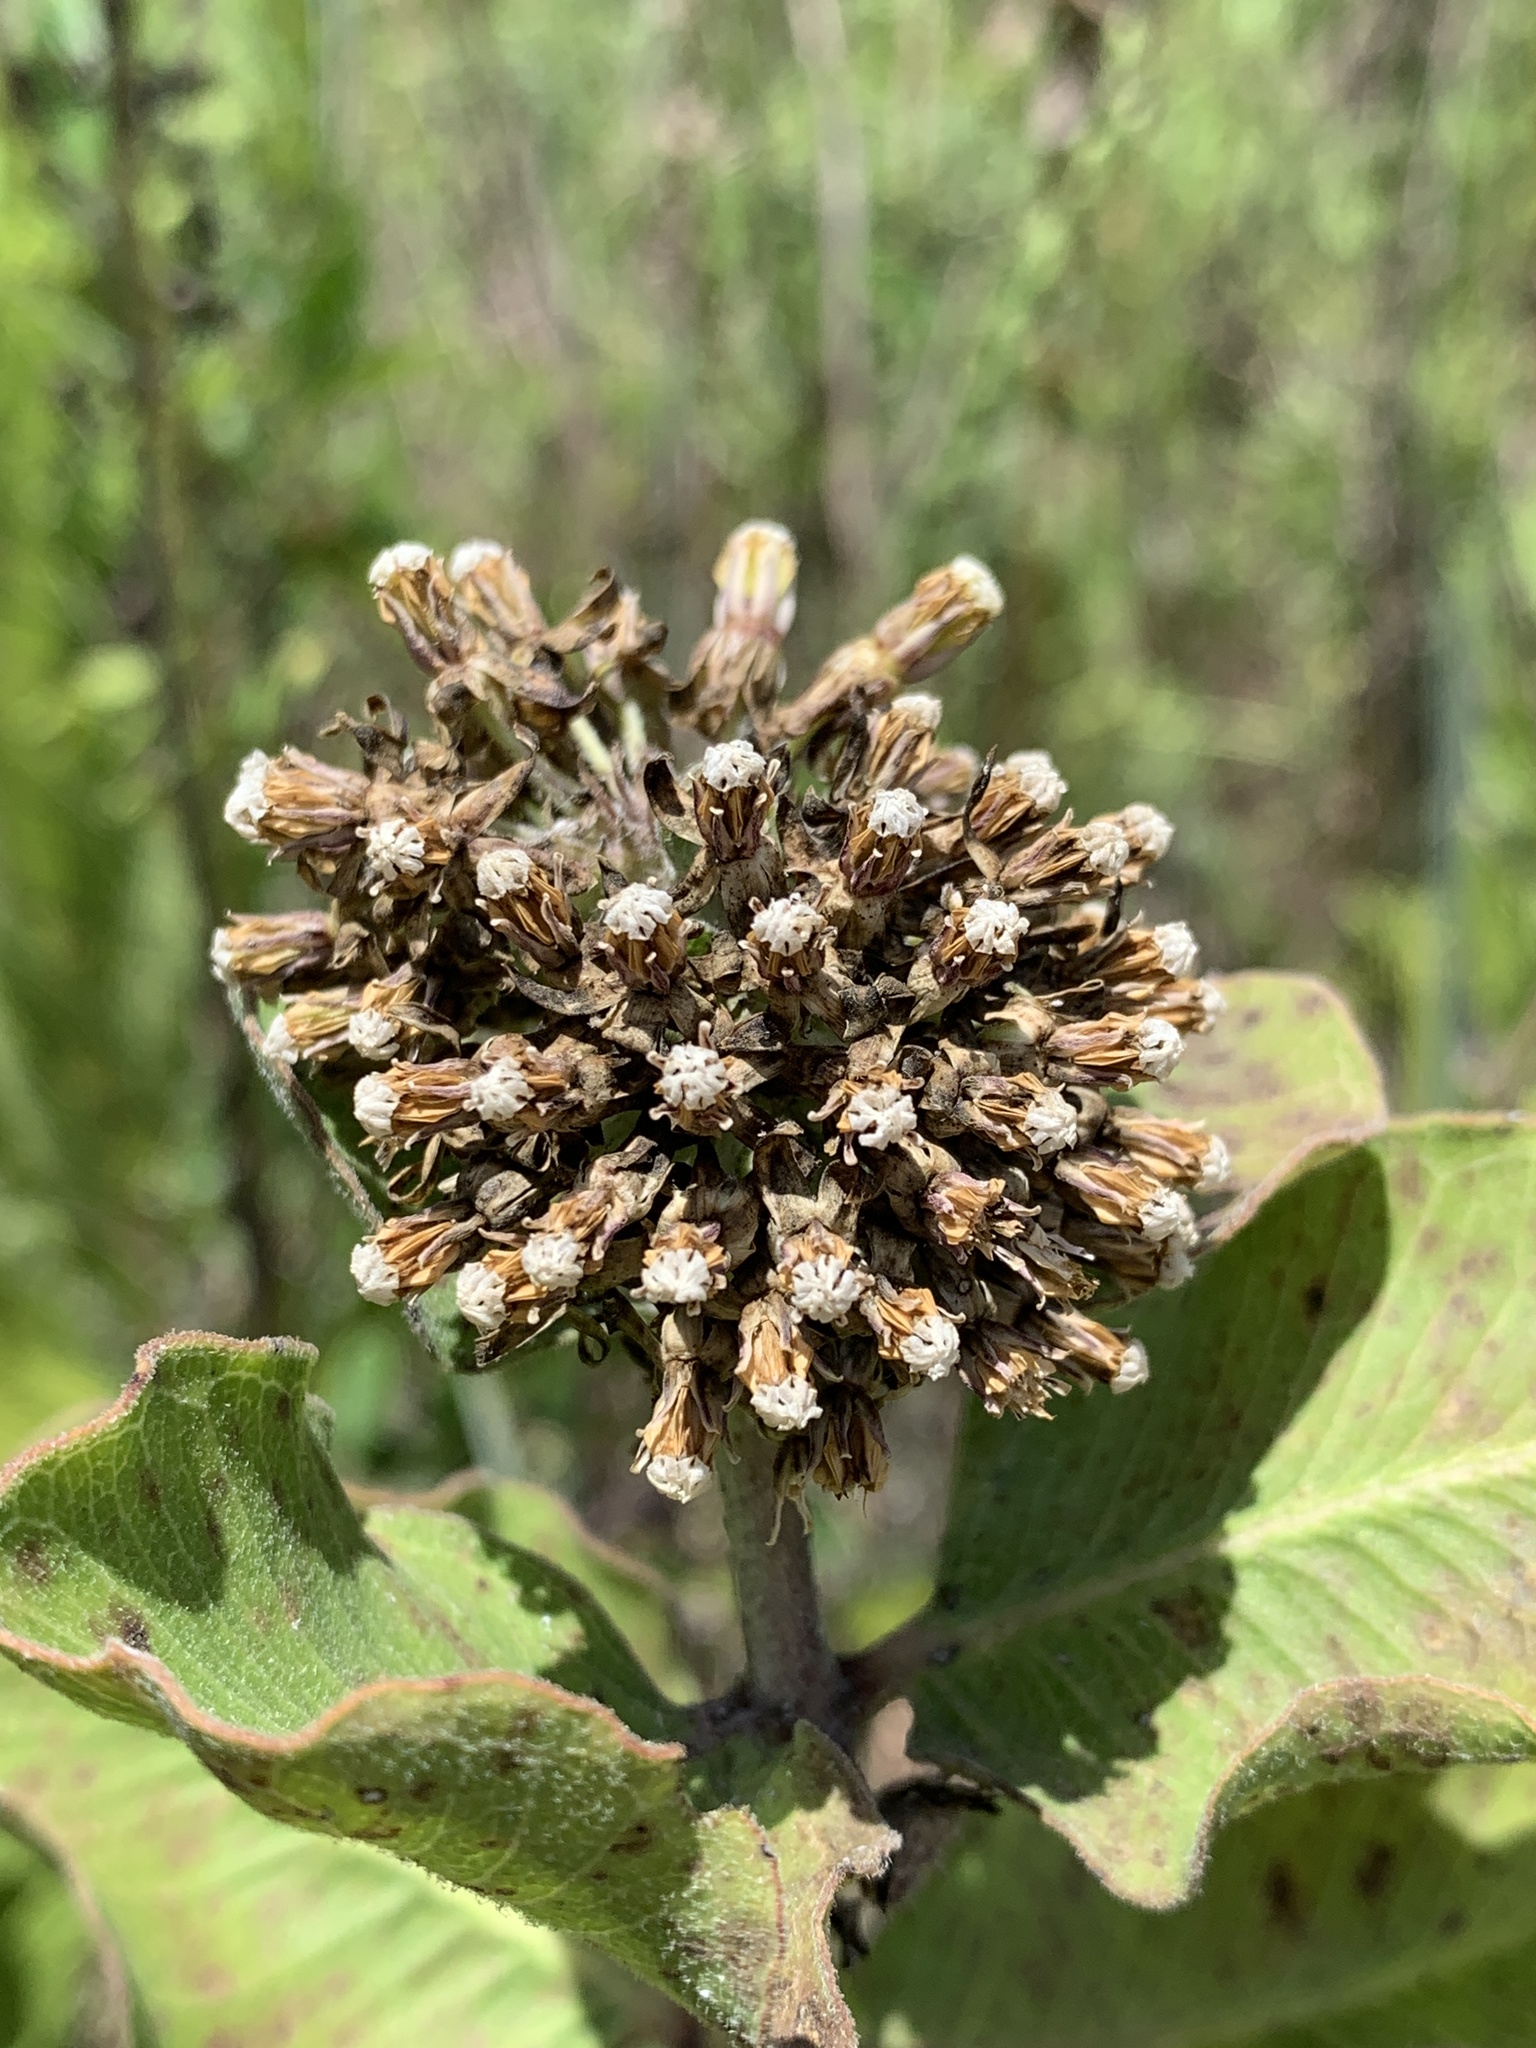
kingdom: Plantae
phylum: Tracheophyta
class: Magnoliopsida
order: Gentianales
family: Apocynaceae
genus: Asclepias
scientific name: Asclepias viridiflora
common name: Green comet milkweed
